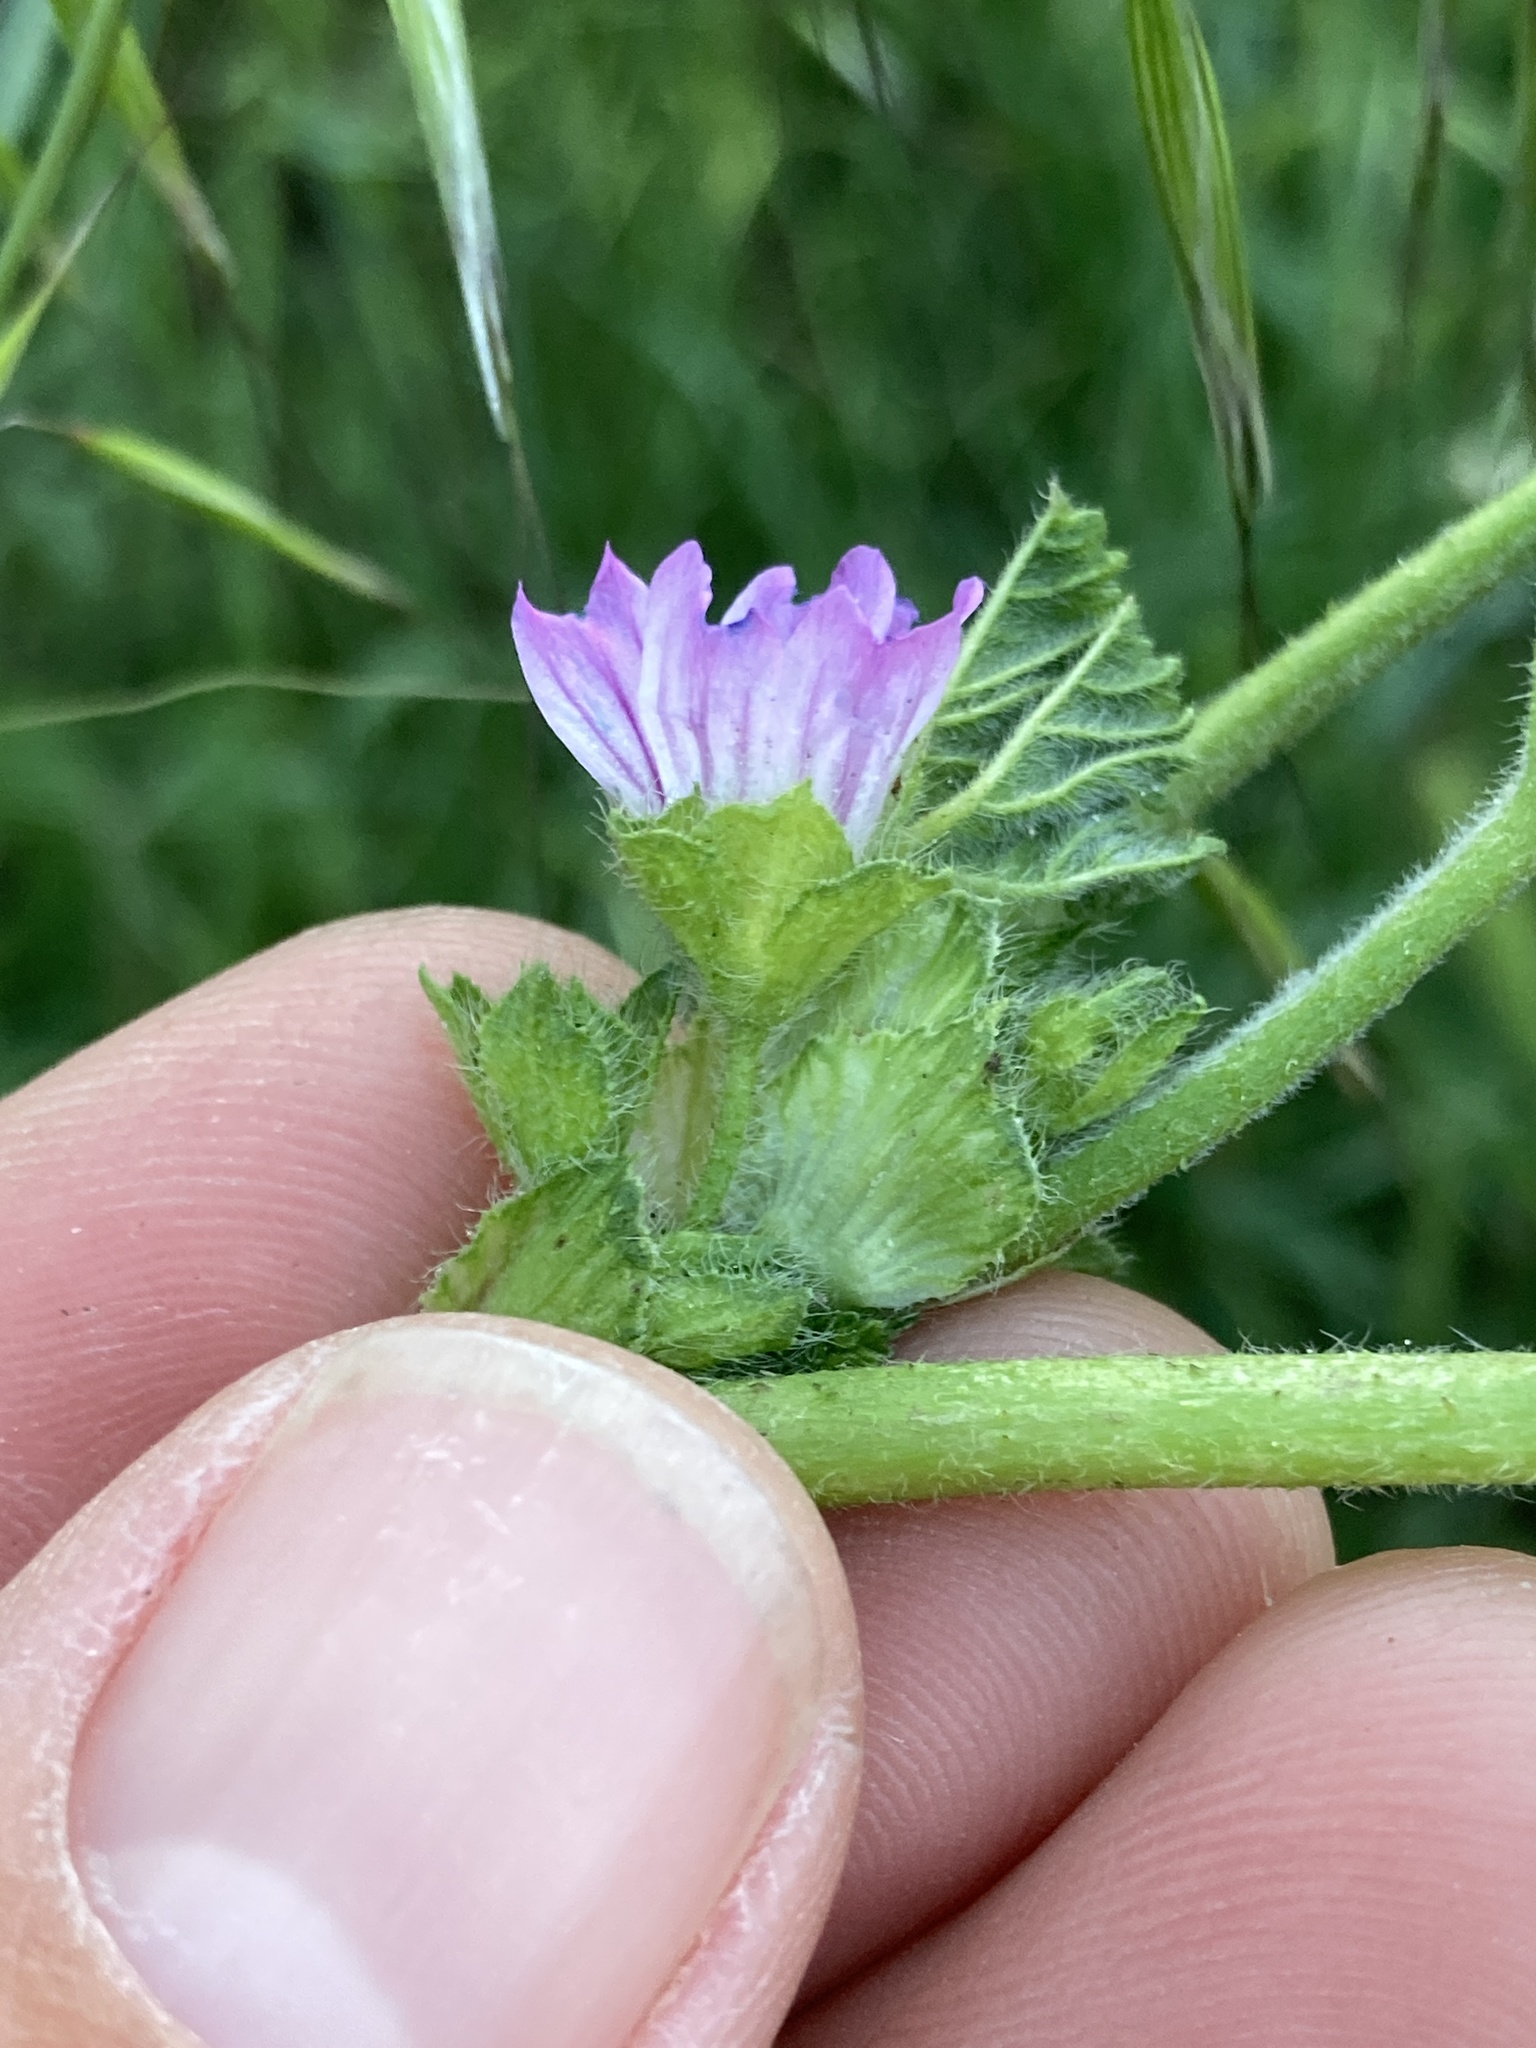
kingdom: Plantae
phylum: Tracheophyta
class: Magnoliopsida
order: Malvales
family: Malvaceae
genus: Malva
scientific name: Malva nicaeensis
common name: French mallow
